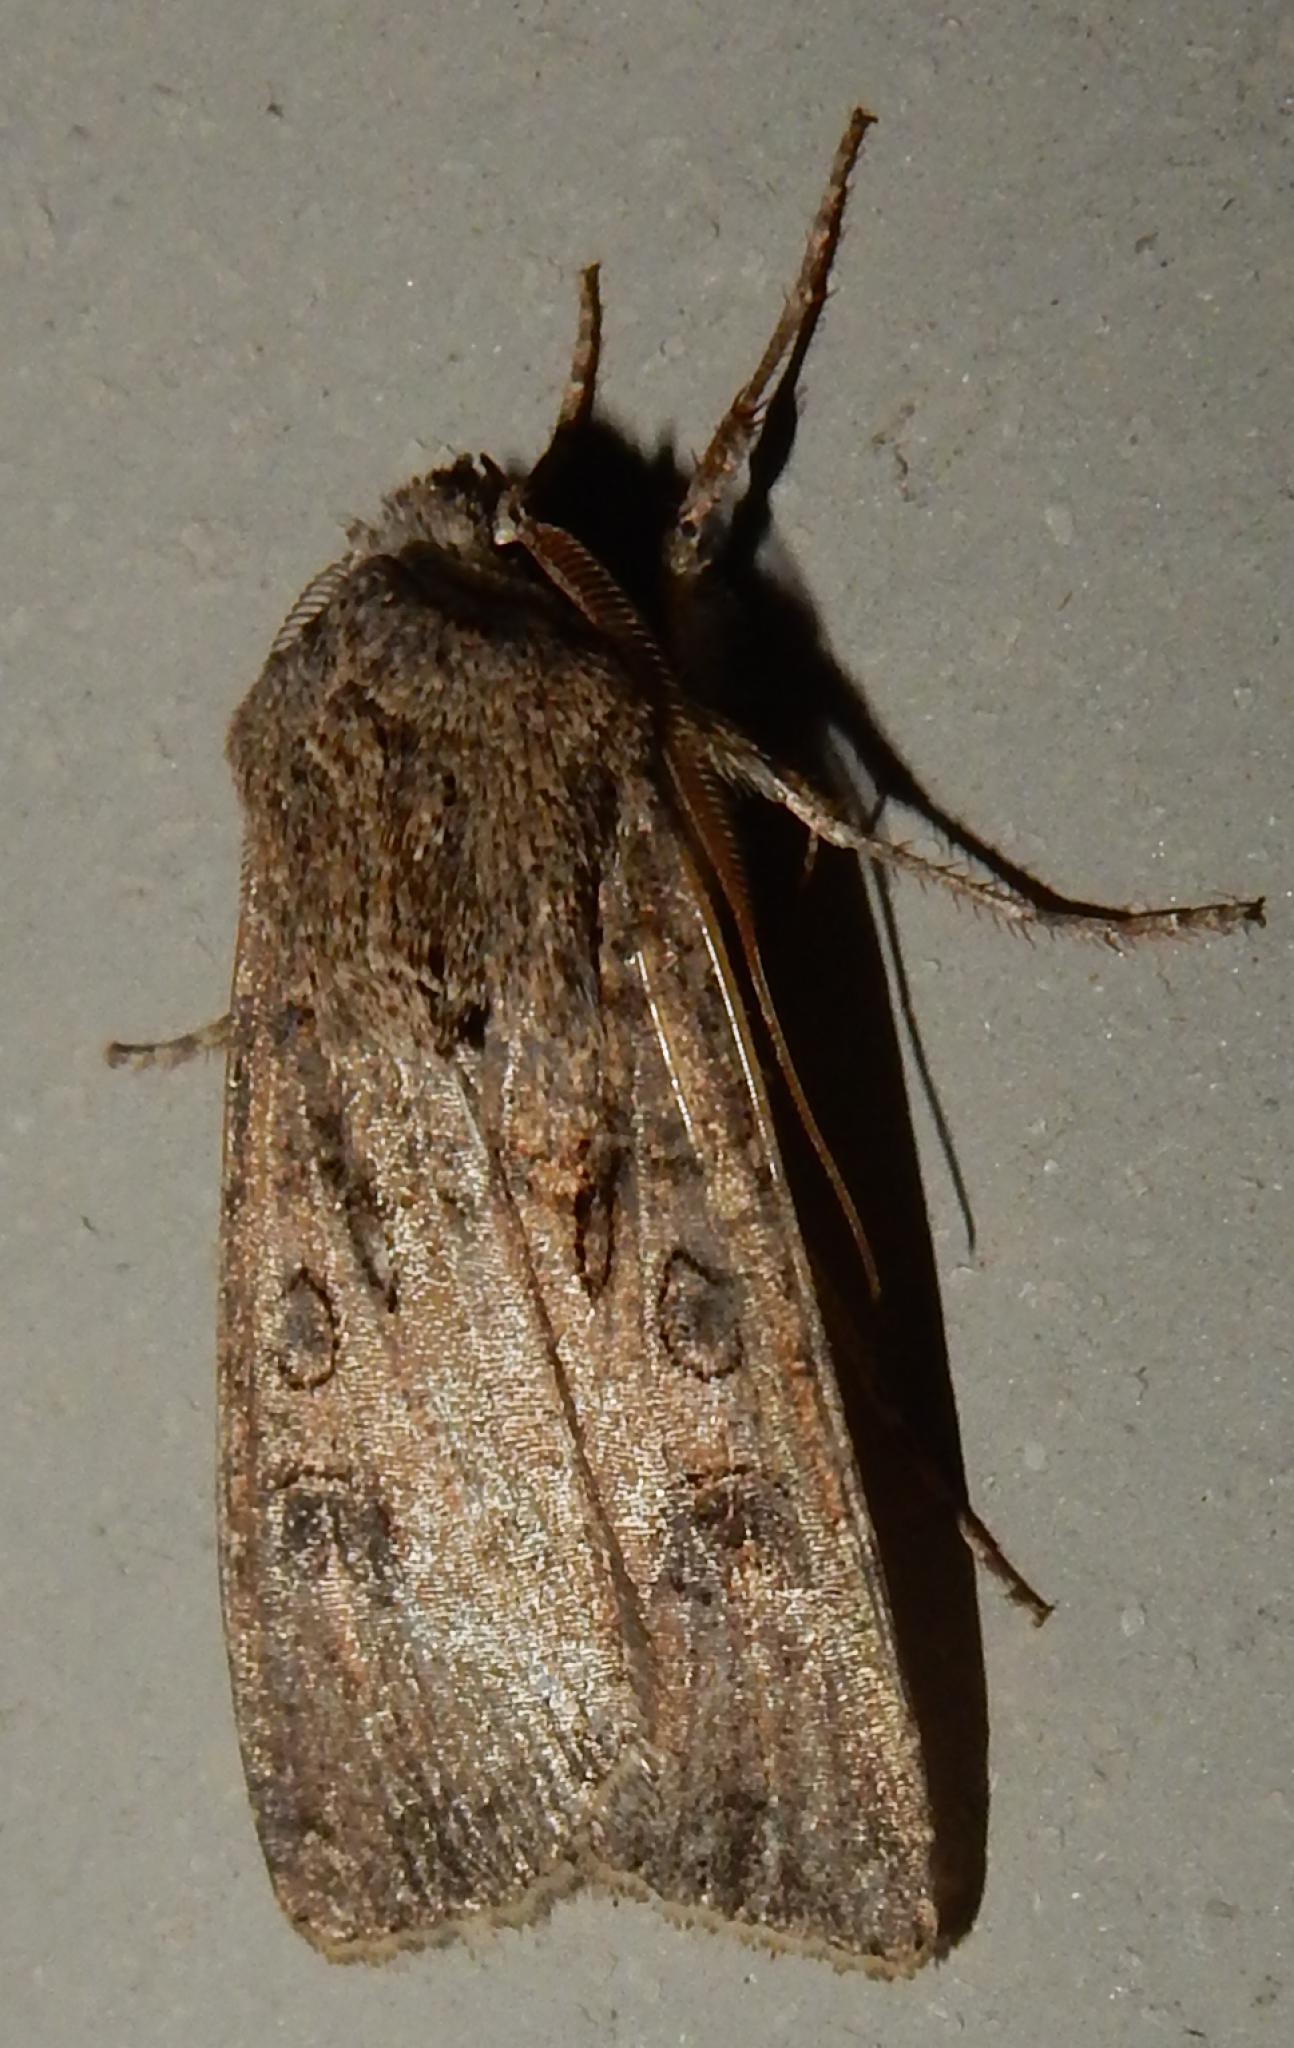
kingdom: Animalia
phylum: Arthropoda
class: Insecta
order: Lepidoptera
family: Noctuidae
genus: Agrotis
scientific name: Agrotis segetum
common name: Turnip moth
